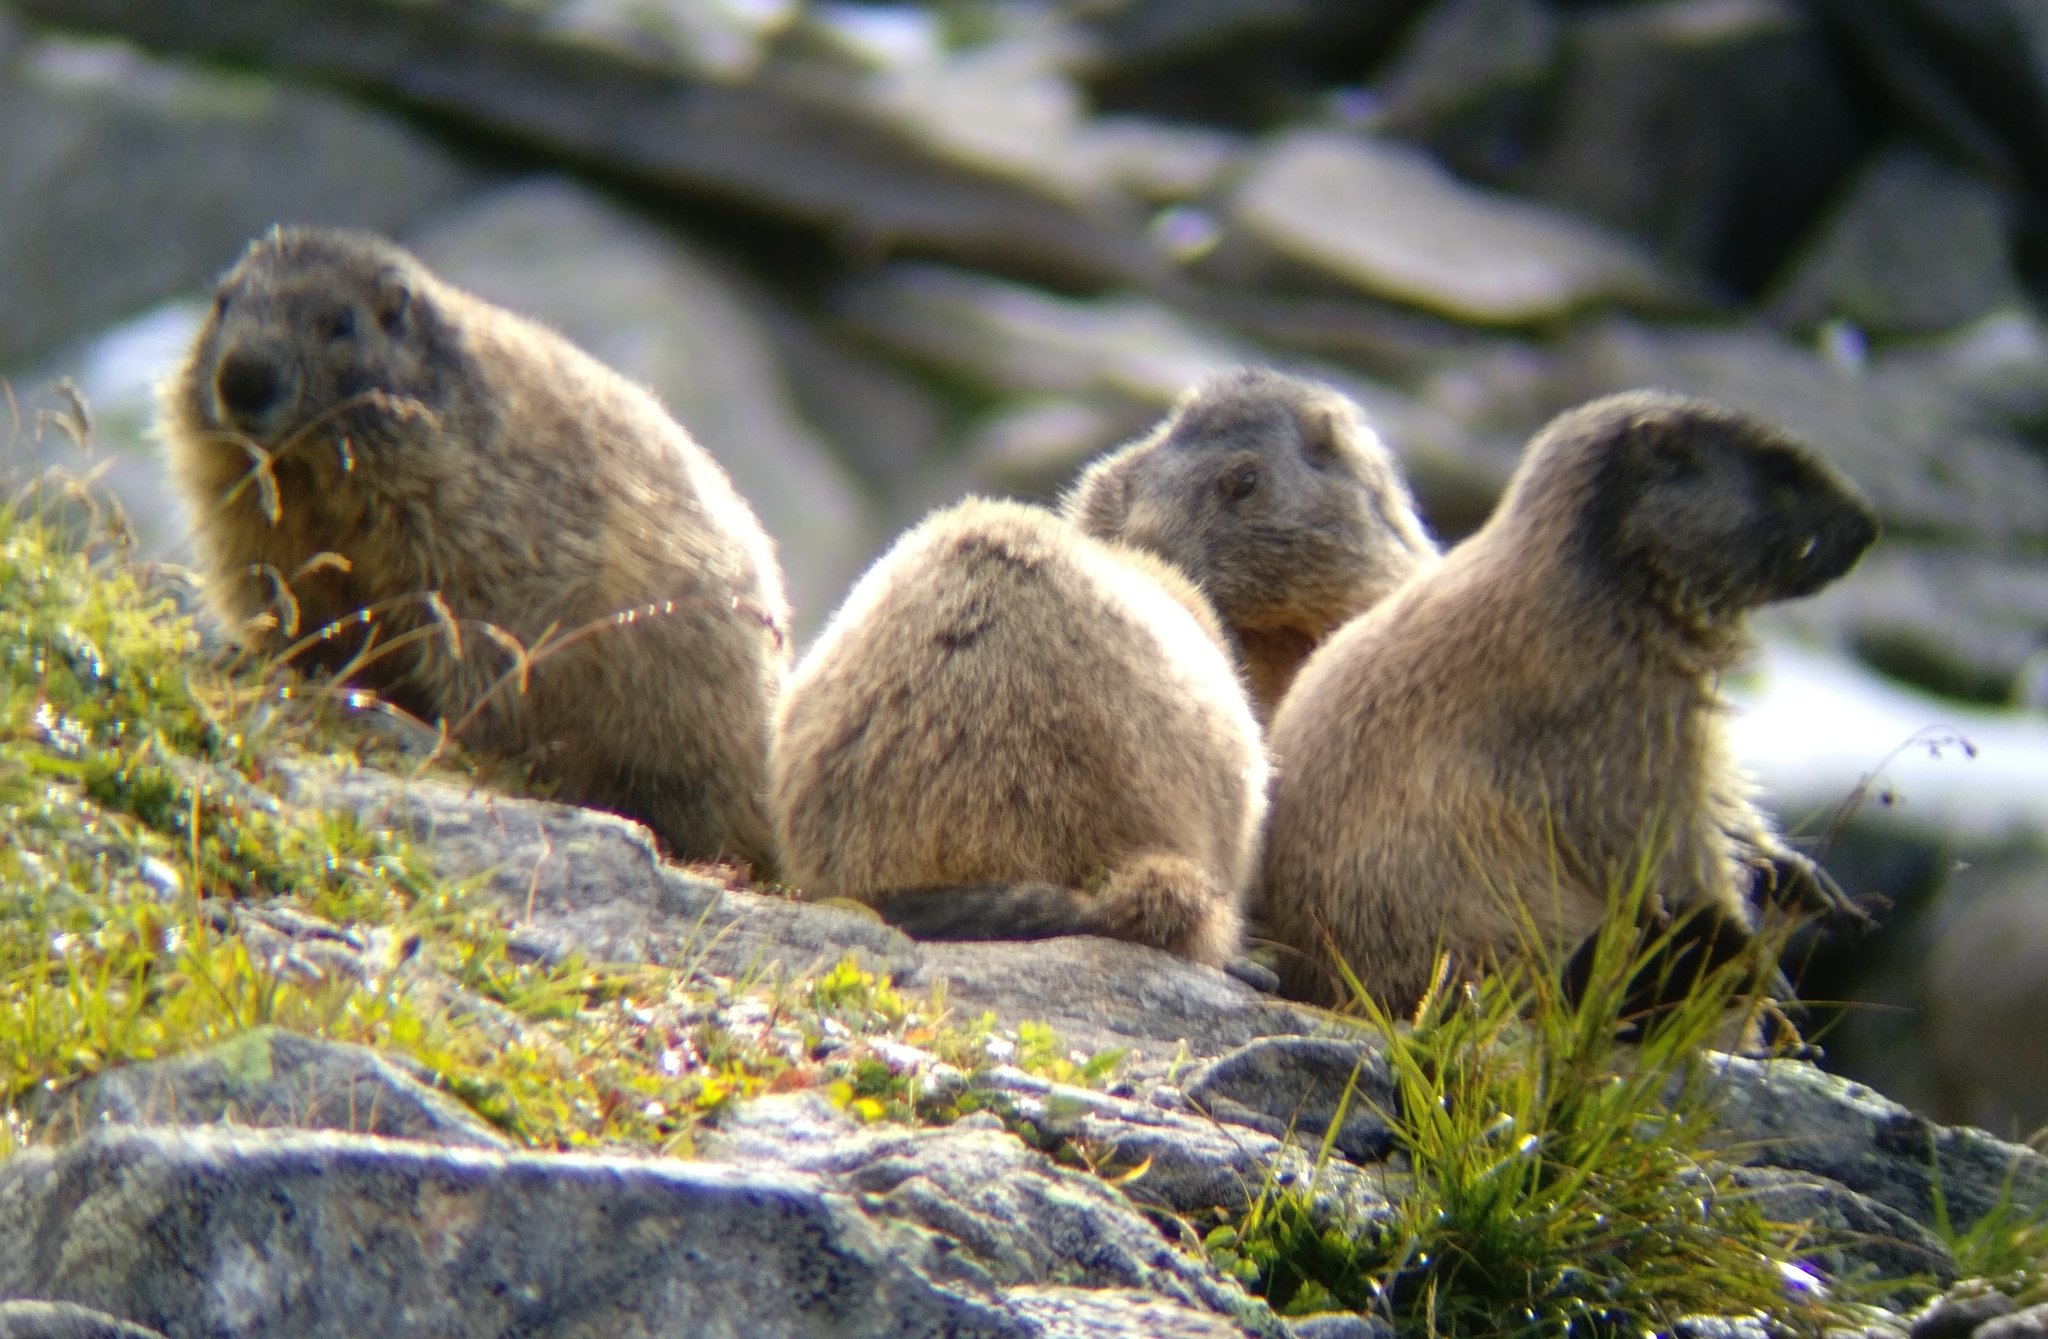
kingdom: Animalia
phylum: Chordata
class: Mammalia
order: Rodentia
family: Sciuridae
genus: Marmota
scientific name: Marmota marmota
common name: Alpine marmot
